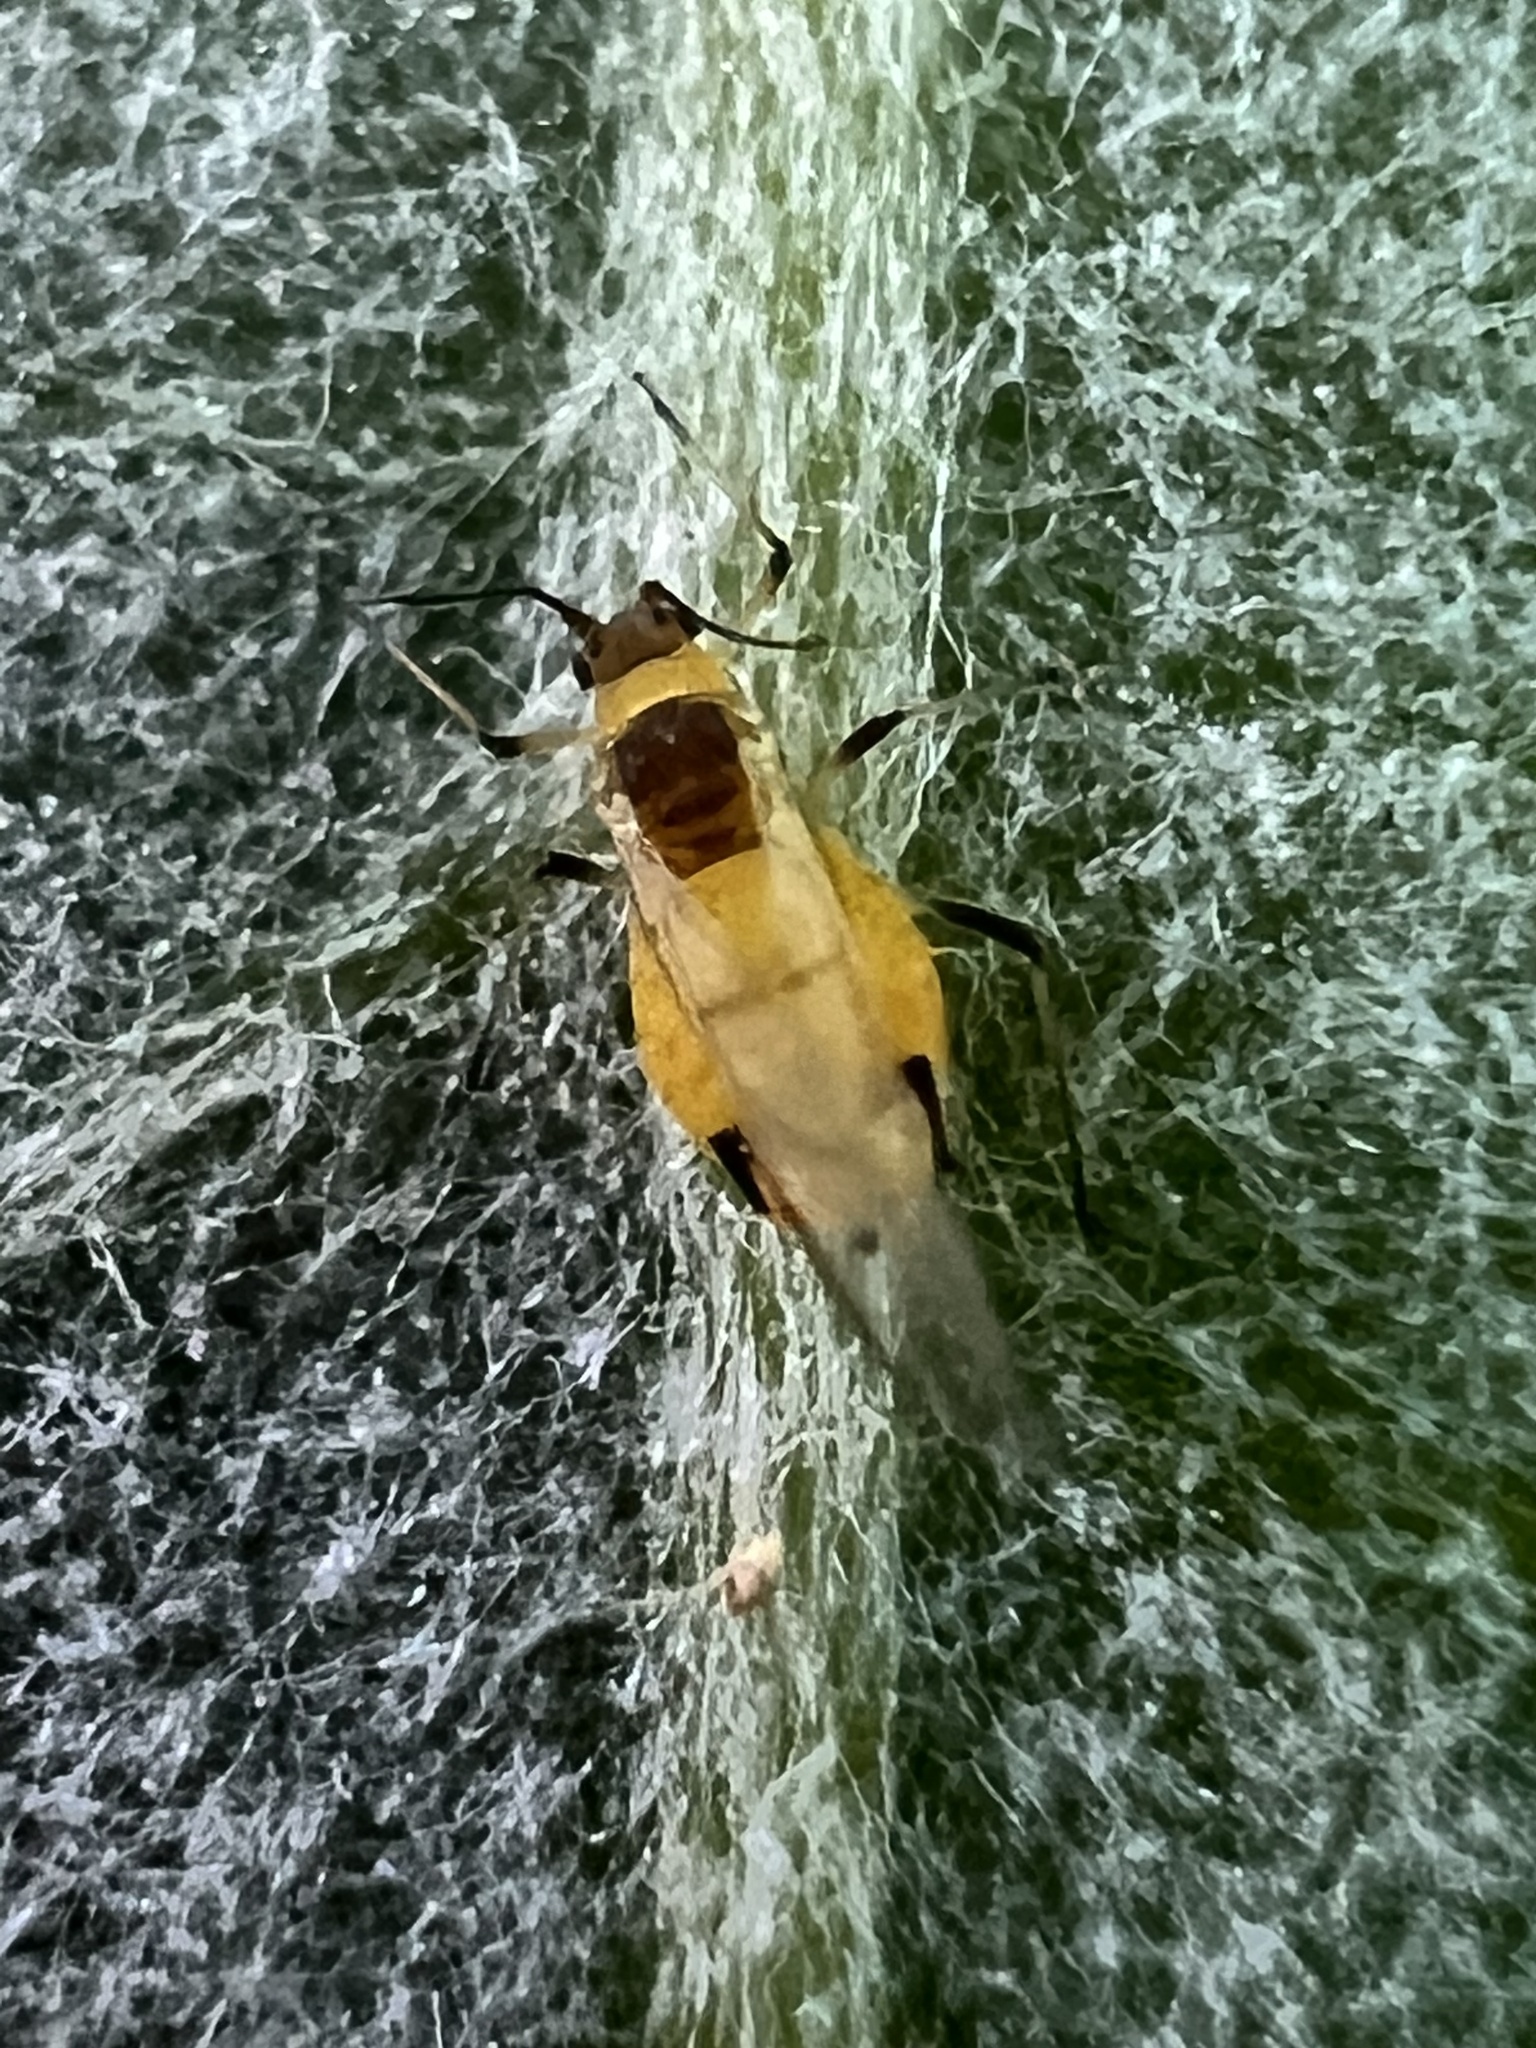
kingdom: Animalia
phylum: Arthropoda
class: Insecta
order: Hemiptera
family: Aphididae
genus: Aphis
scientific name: Aphis nerii
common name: Oleander aphid
